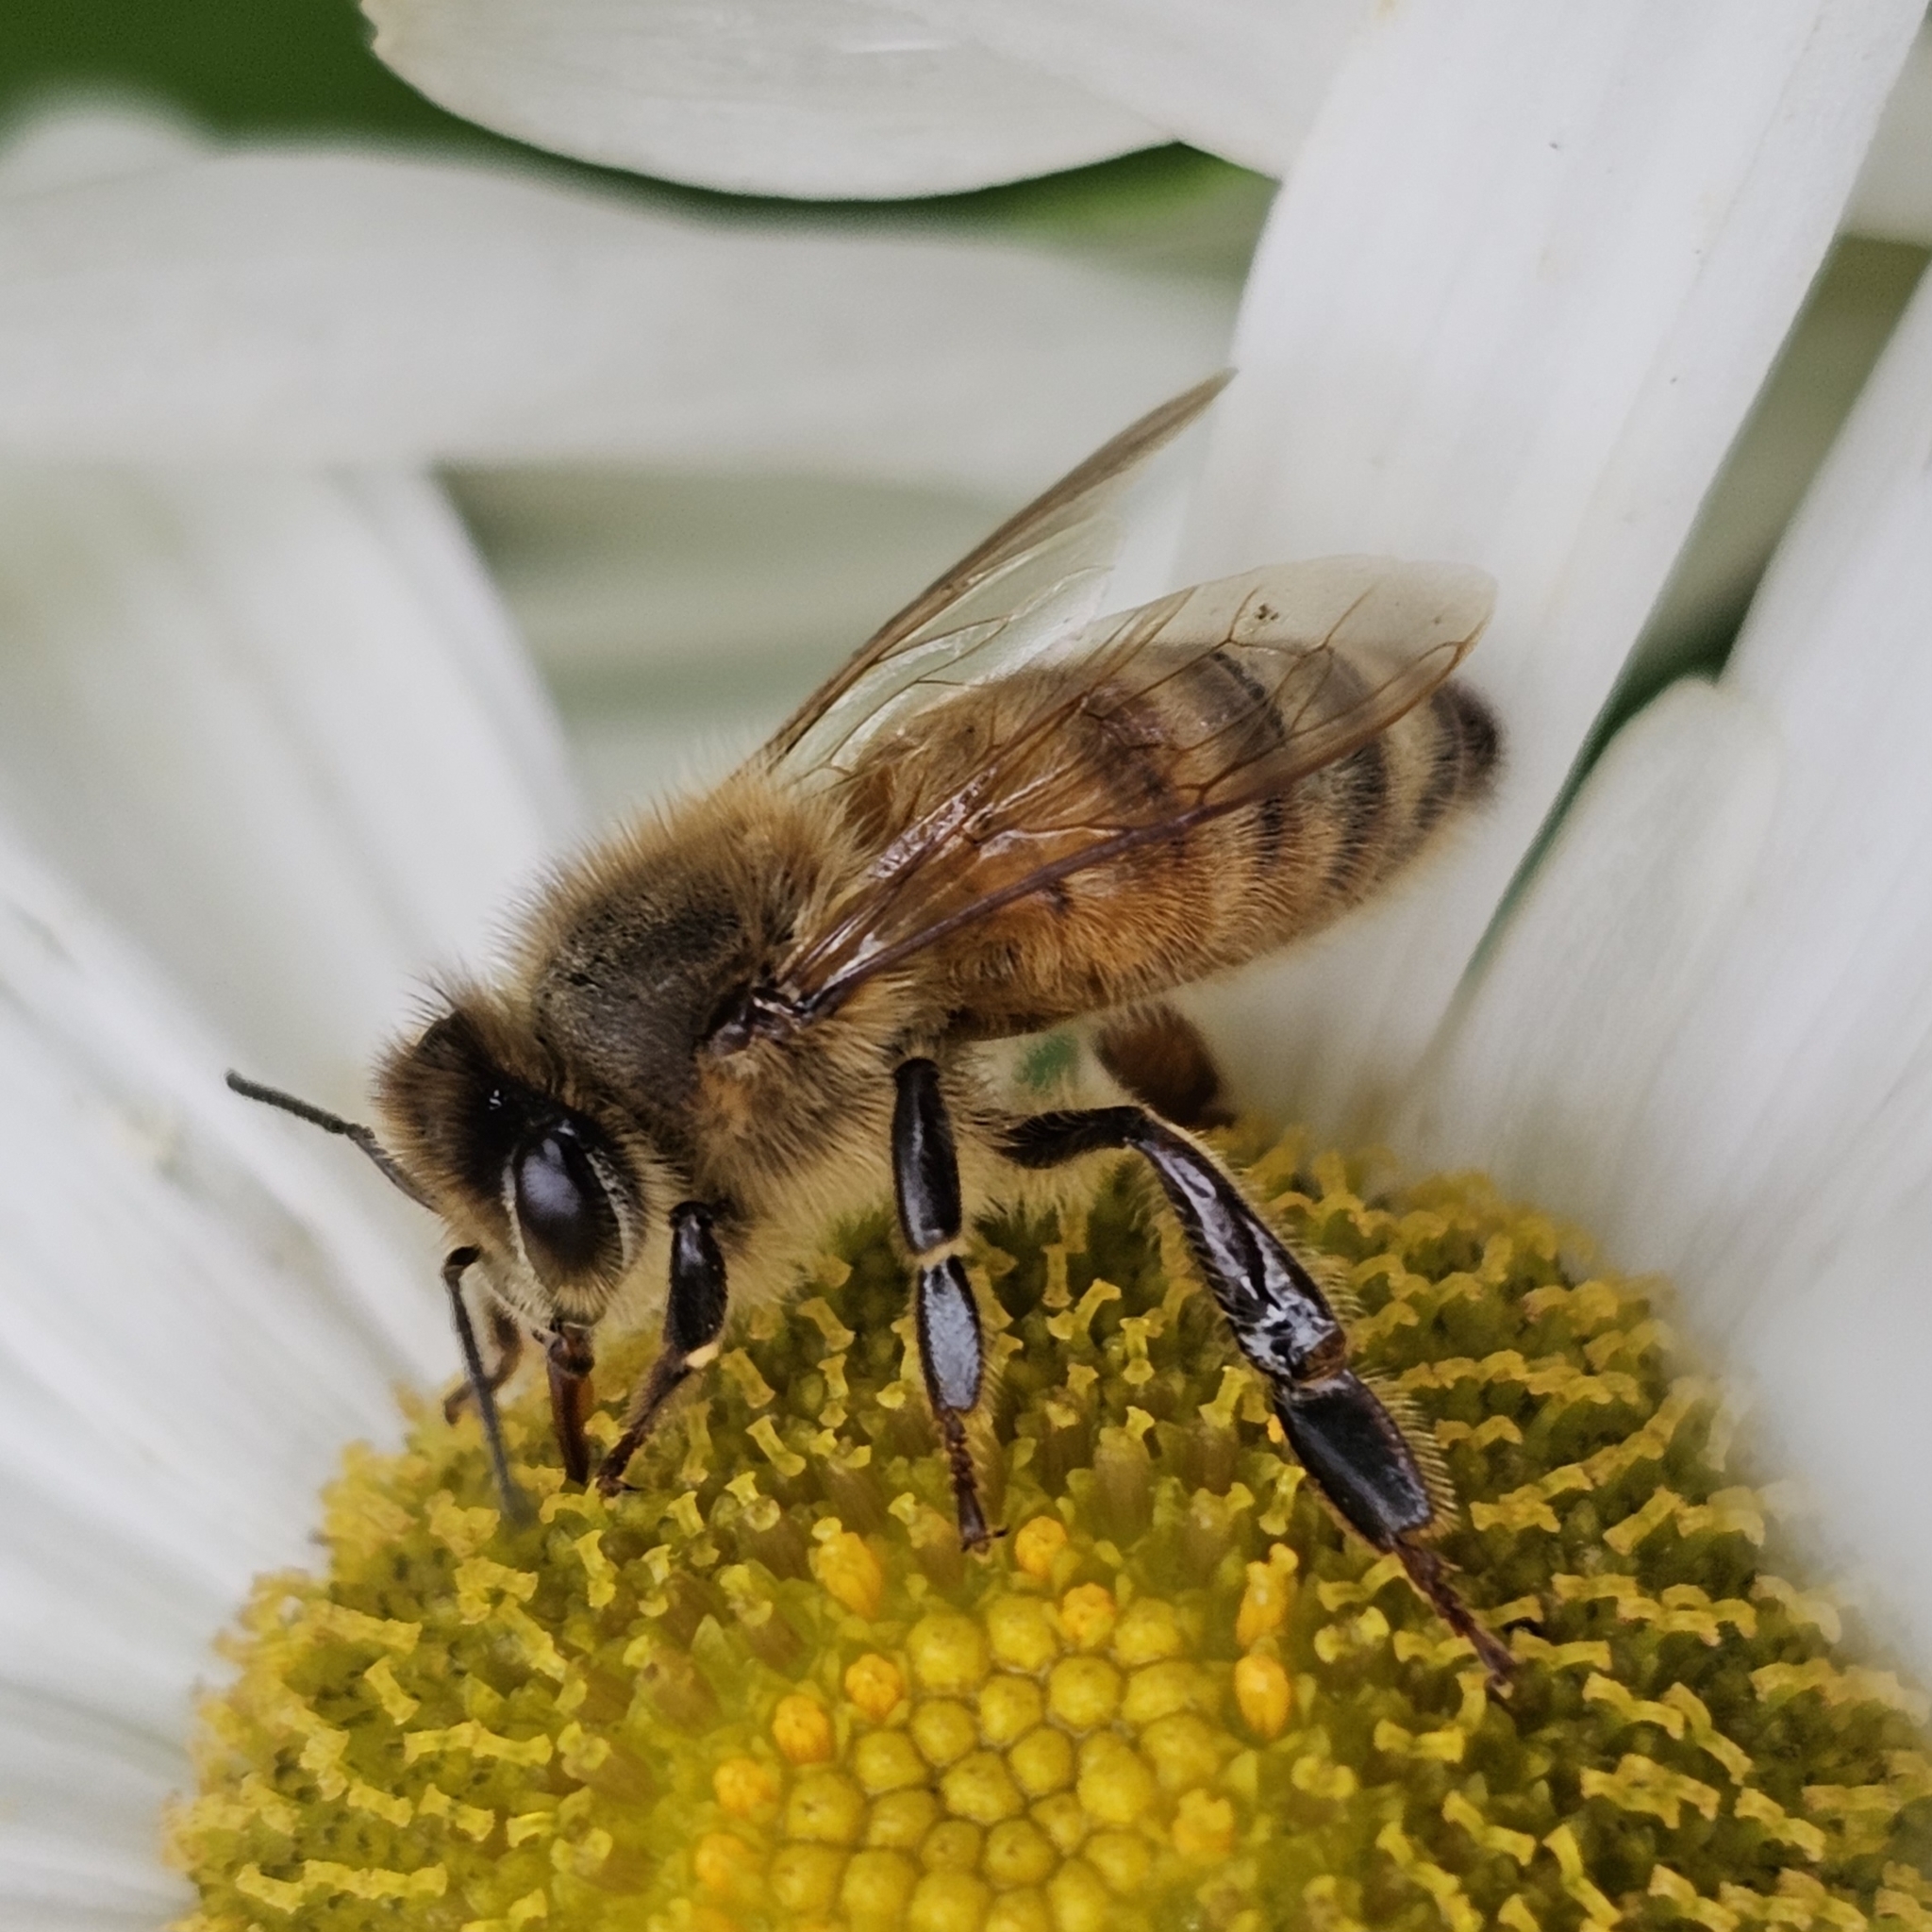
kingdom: Animalia
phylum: Arthropoda
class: Insecta
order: Hymenoptera
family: Apidae
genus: Apis
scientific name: Apis mellifera
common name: Honey bee
